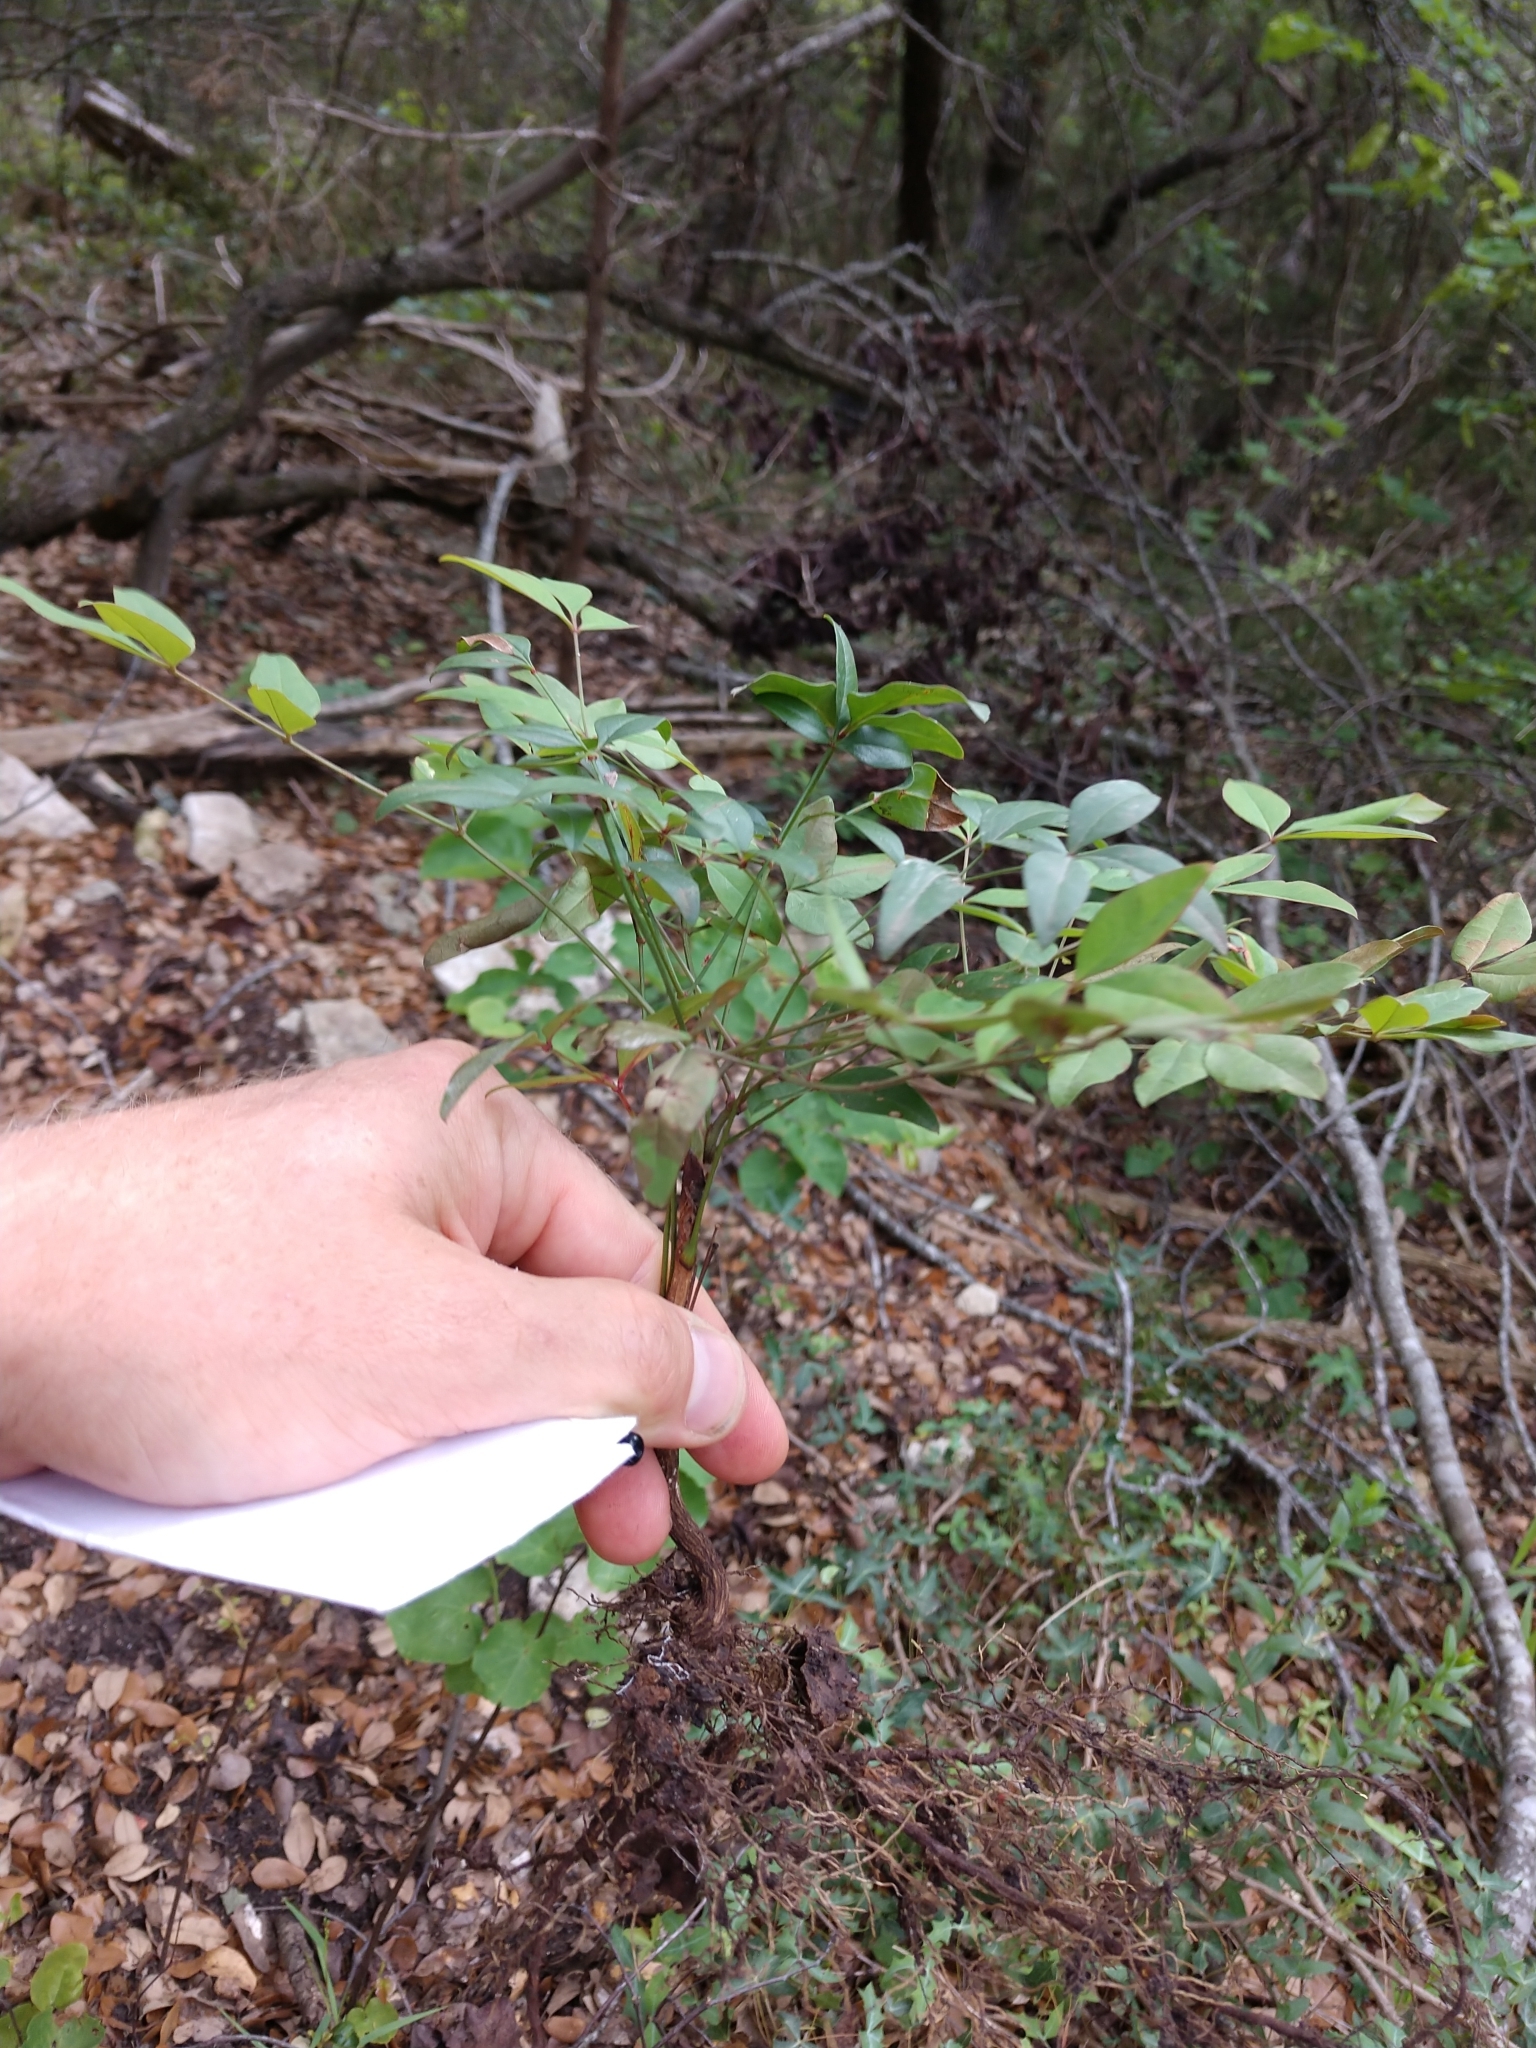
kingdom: Plantae
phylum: Tracheophyta
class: Magnoliopsida
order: Ranunculales
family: Berberidaceae
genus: Nandina
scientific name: Nandina domestica
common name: Sacred bamboo
